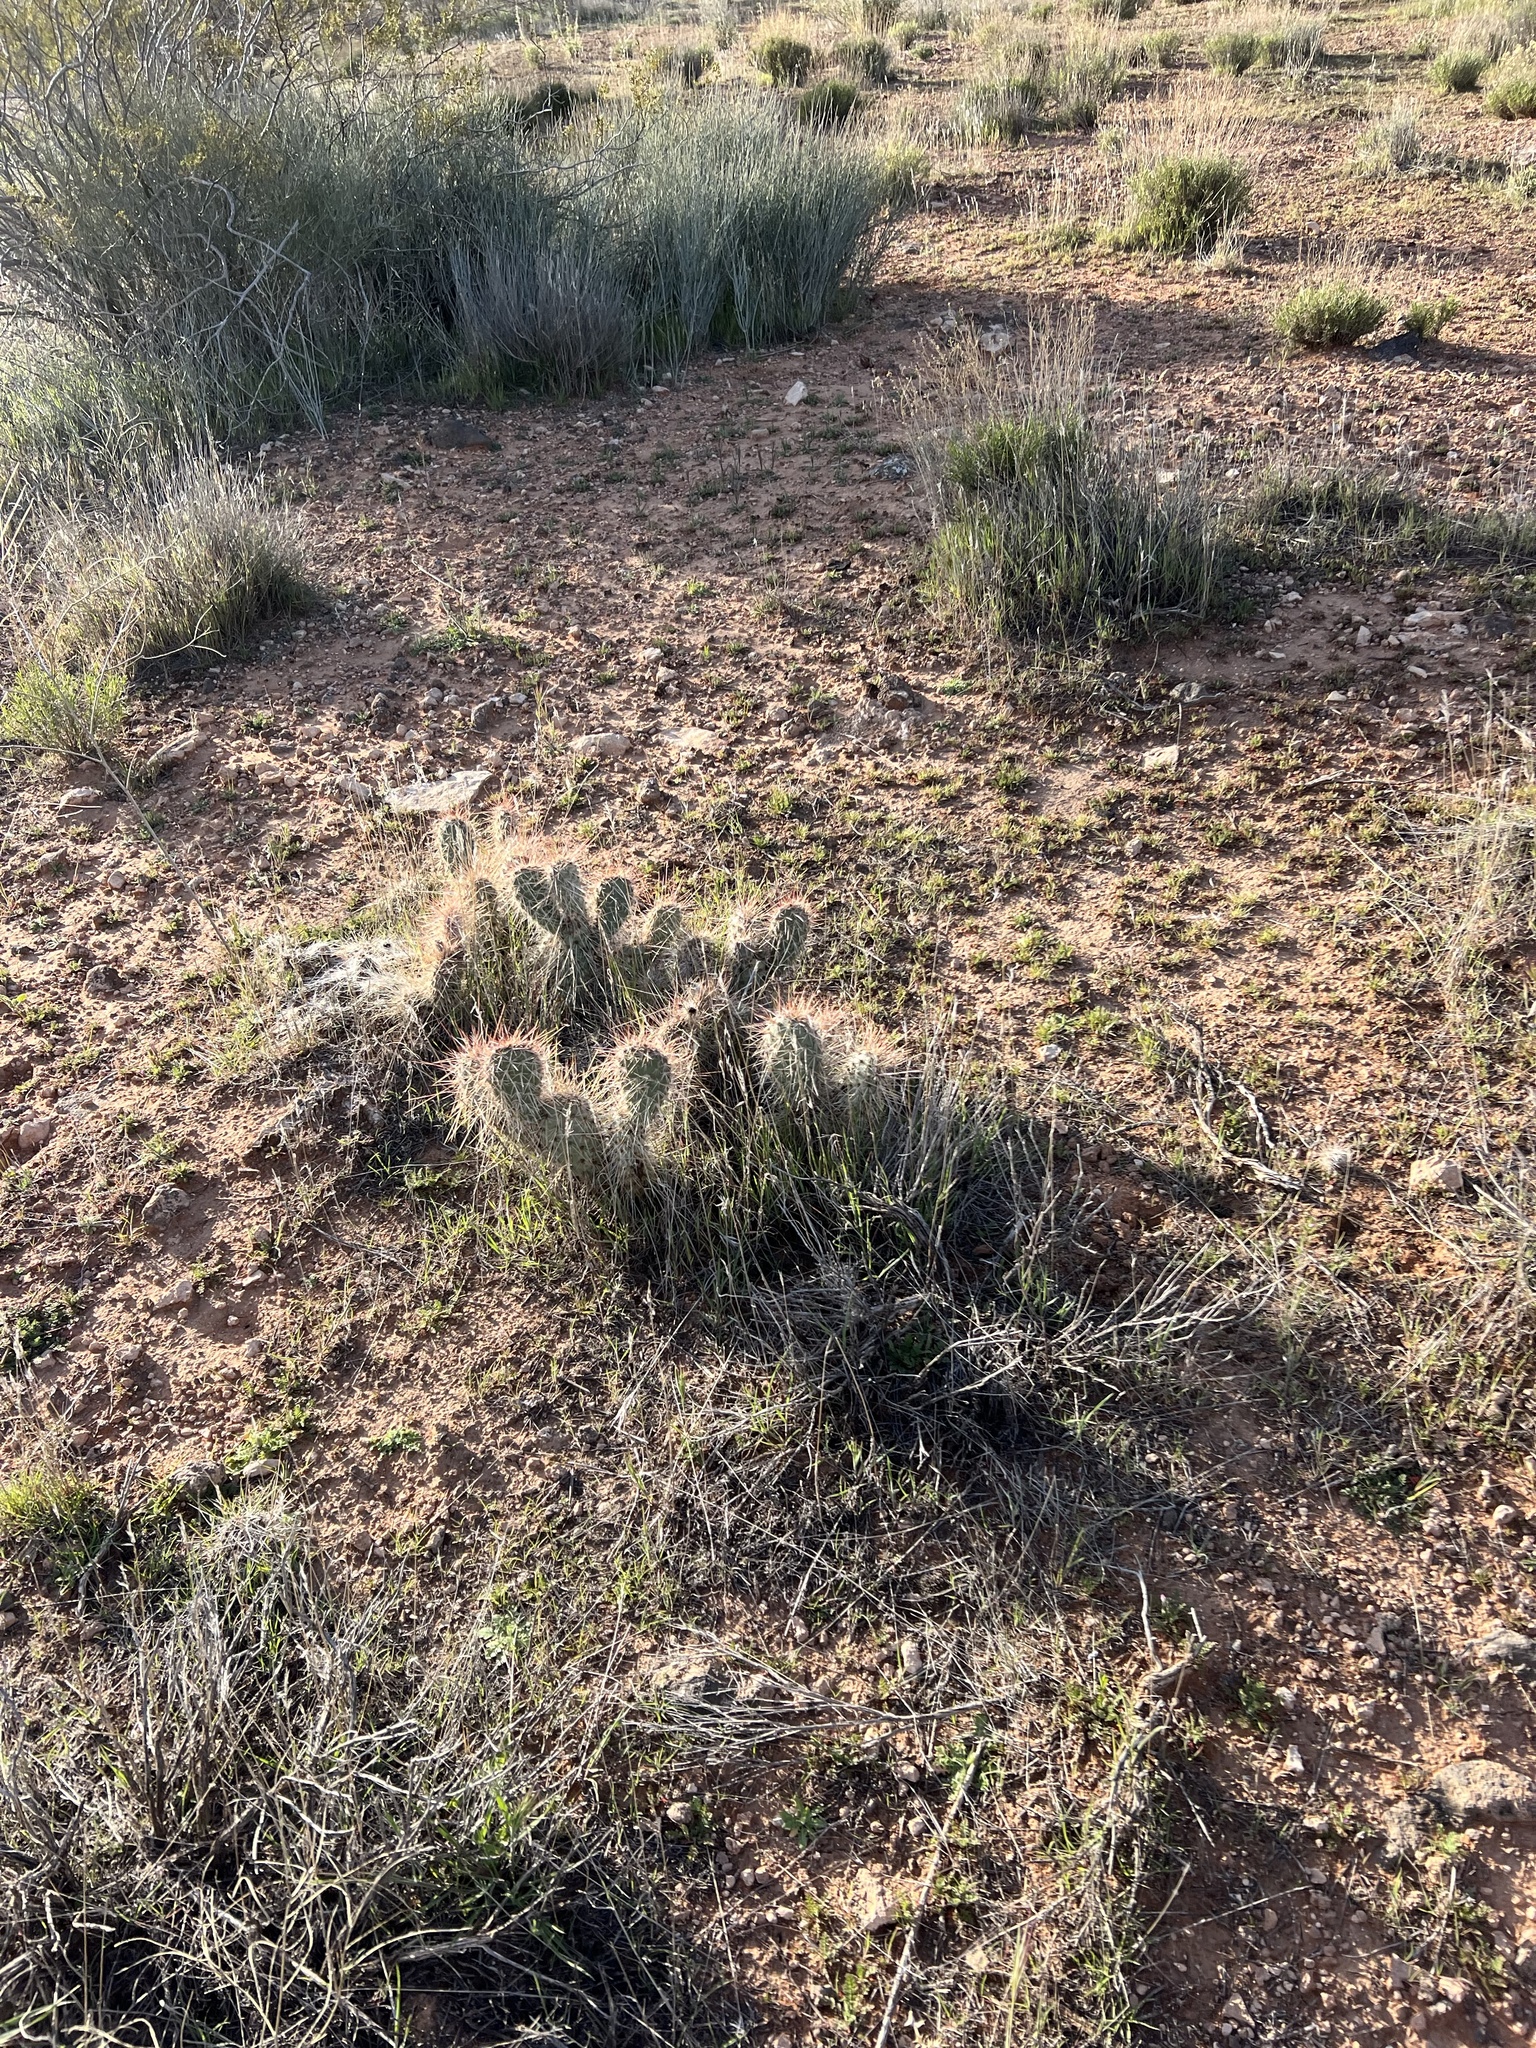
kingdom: Plantae
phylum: Tracheophyta
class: Magnoliopsida
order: Caryophyllales
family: Cactaceae
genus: Opuntia
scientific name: Opuntia polyacantha
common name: Plains prickly-pear
